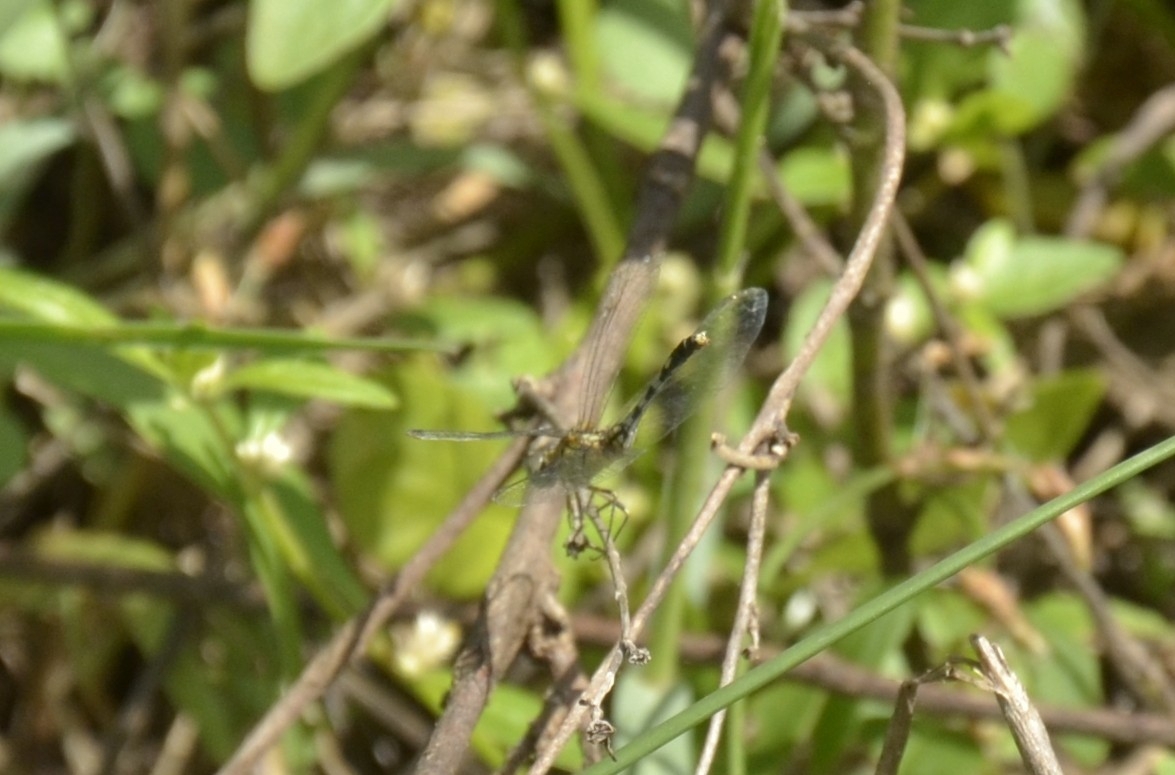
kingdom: Animalia
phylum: Arthropoda
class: Insecta
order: Odonata
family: Libellulidae
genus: Diplacodes
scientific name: Diplacodes trivialis
